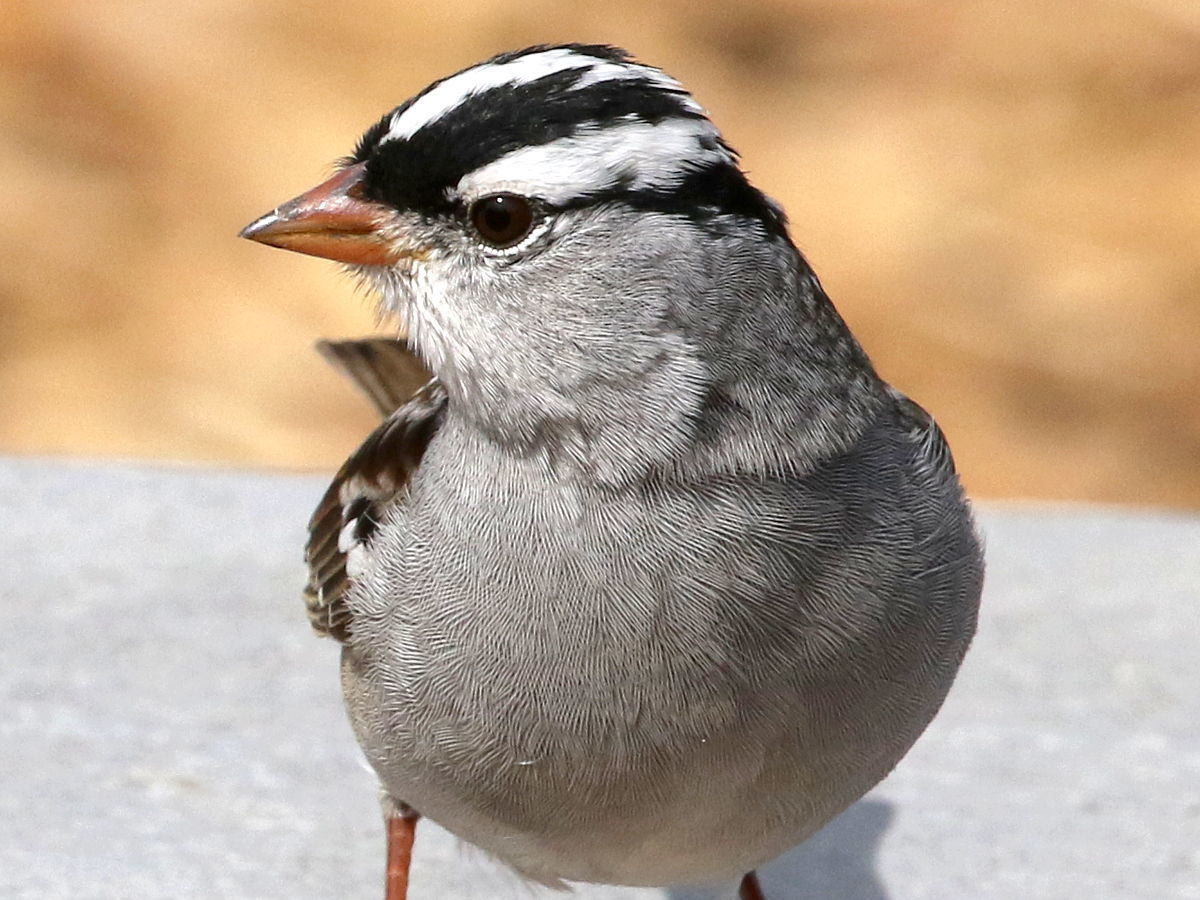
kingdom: Animalia
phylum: Chordata
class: Aves
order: Passeriformes
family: Passerellidae
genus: Zonotrichia
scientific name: Zonotrichia leucophrys
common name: White-crowned sparrow
